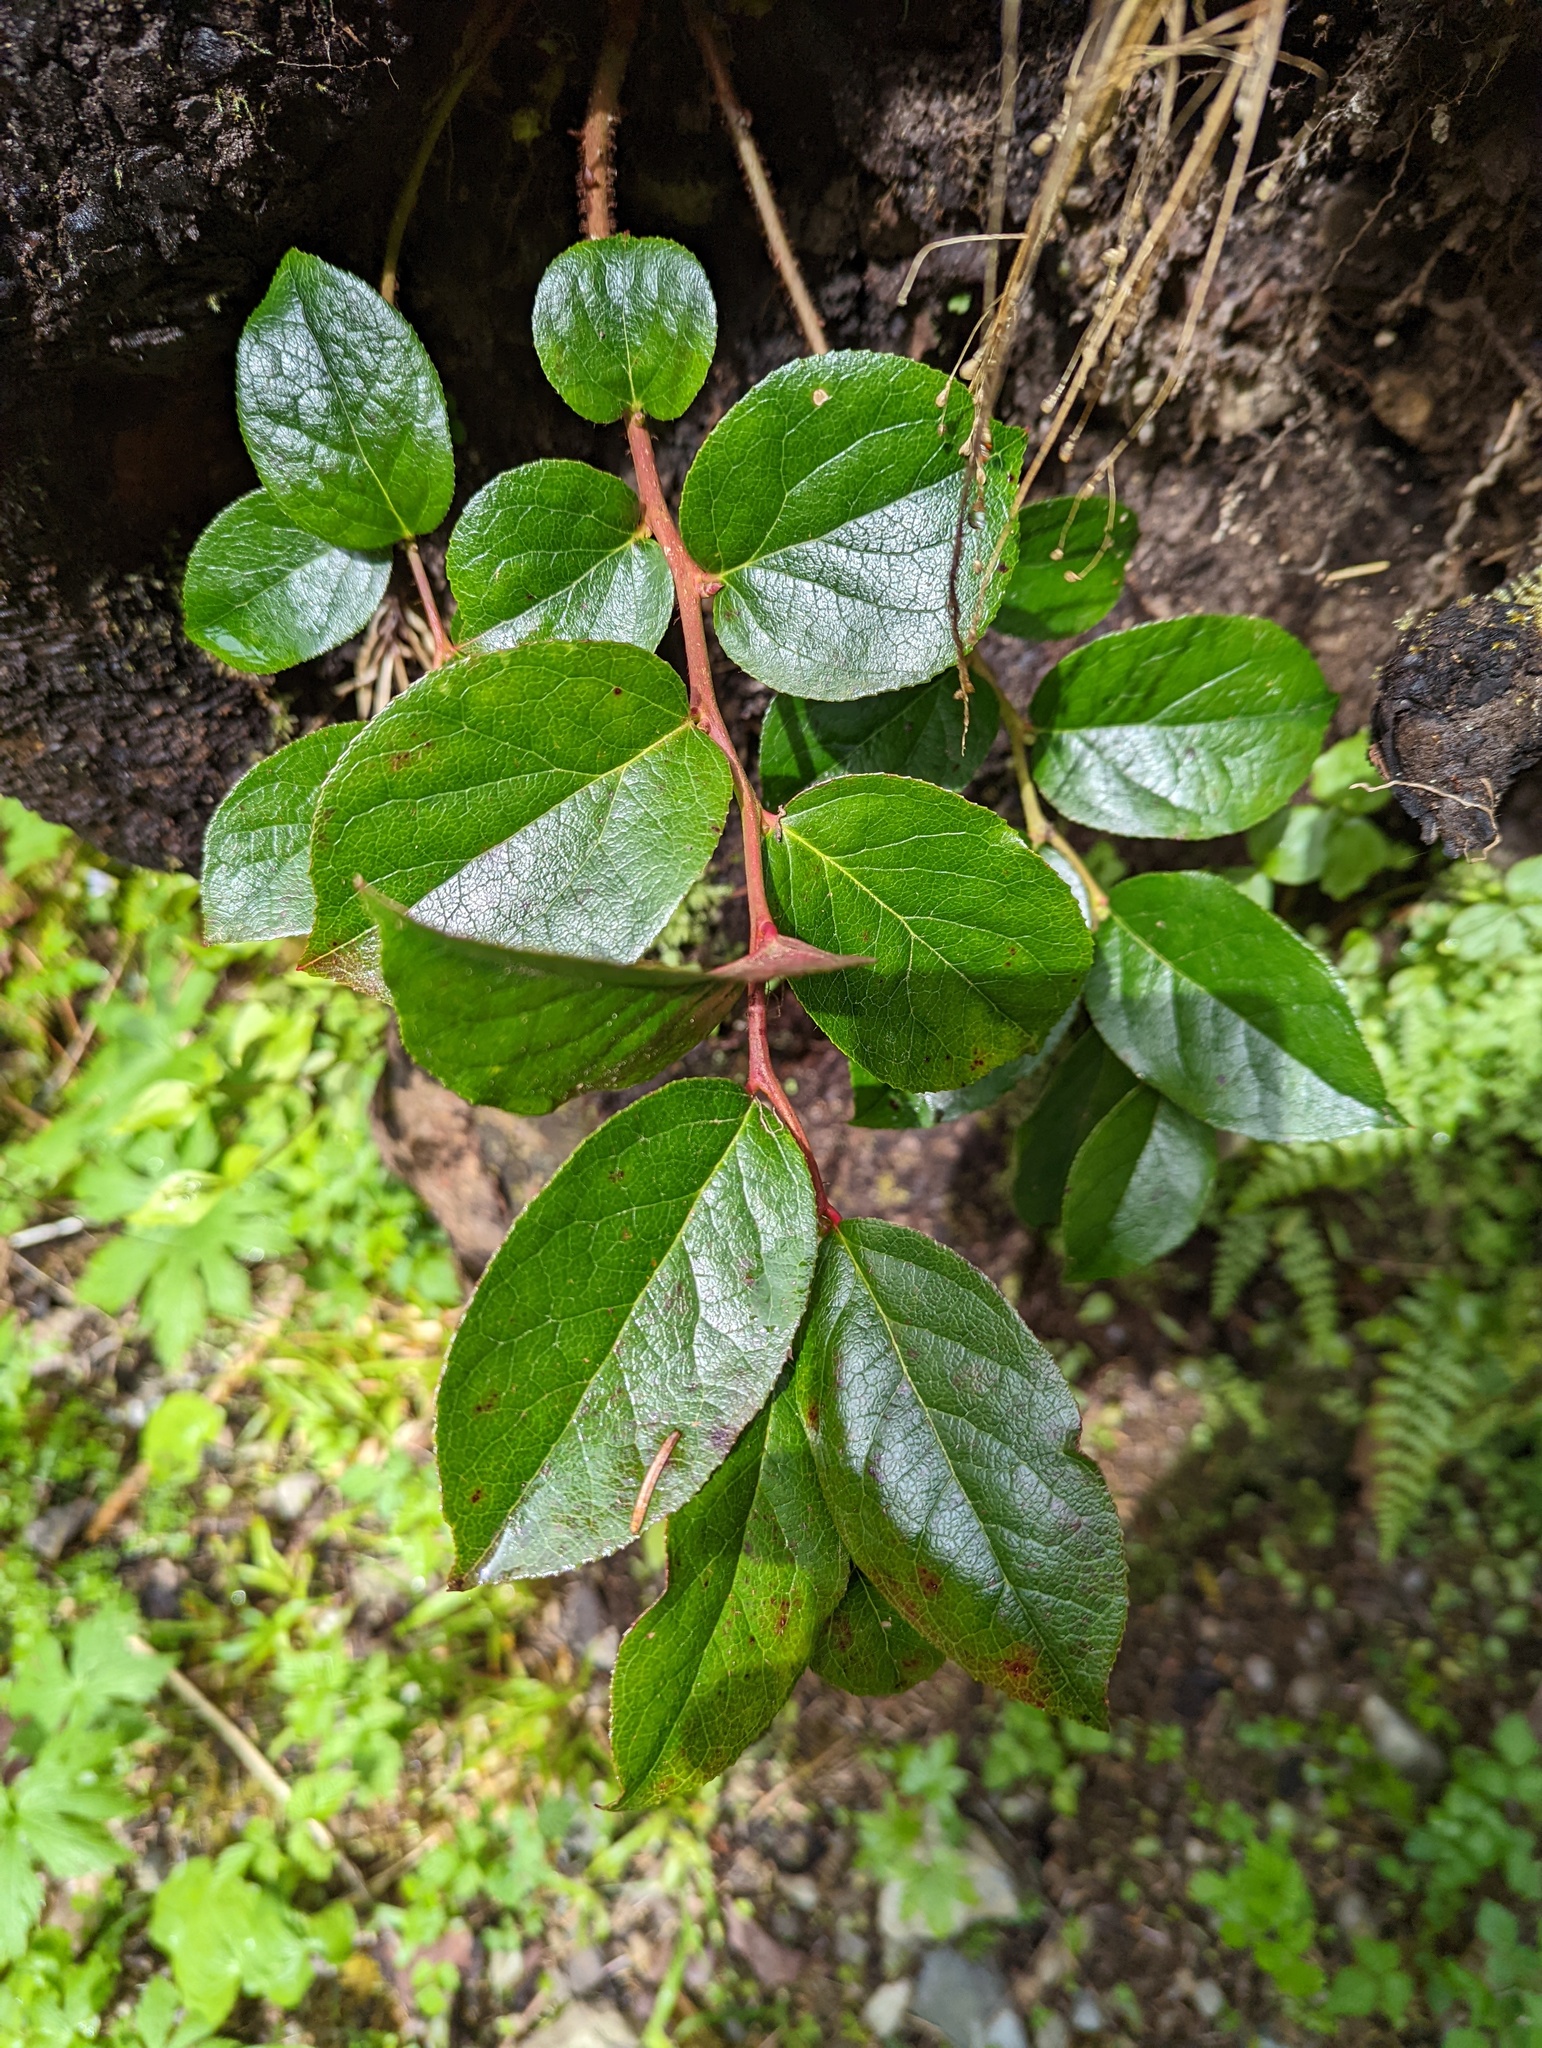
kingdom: Plantae
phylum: Tracheophyta
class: Magnoliopsida
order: Ericales
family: Ericaceae
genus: Gaultheria
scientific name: Gaultheria shallon
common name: Shallon
